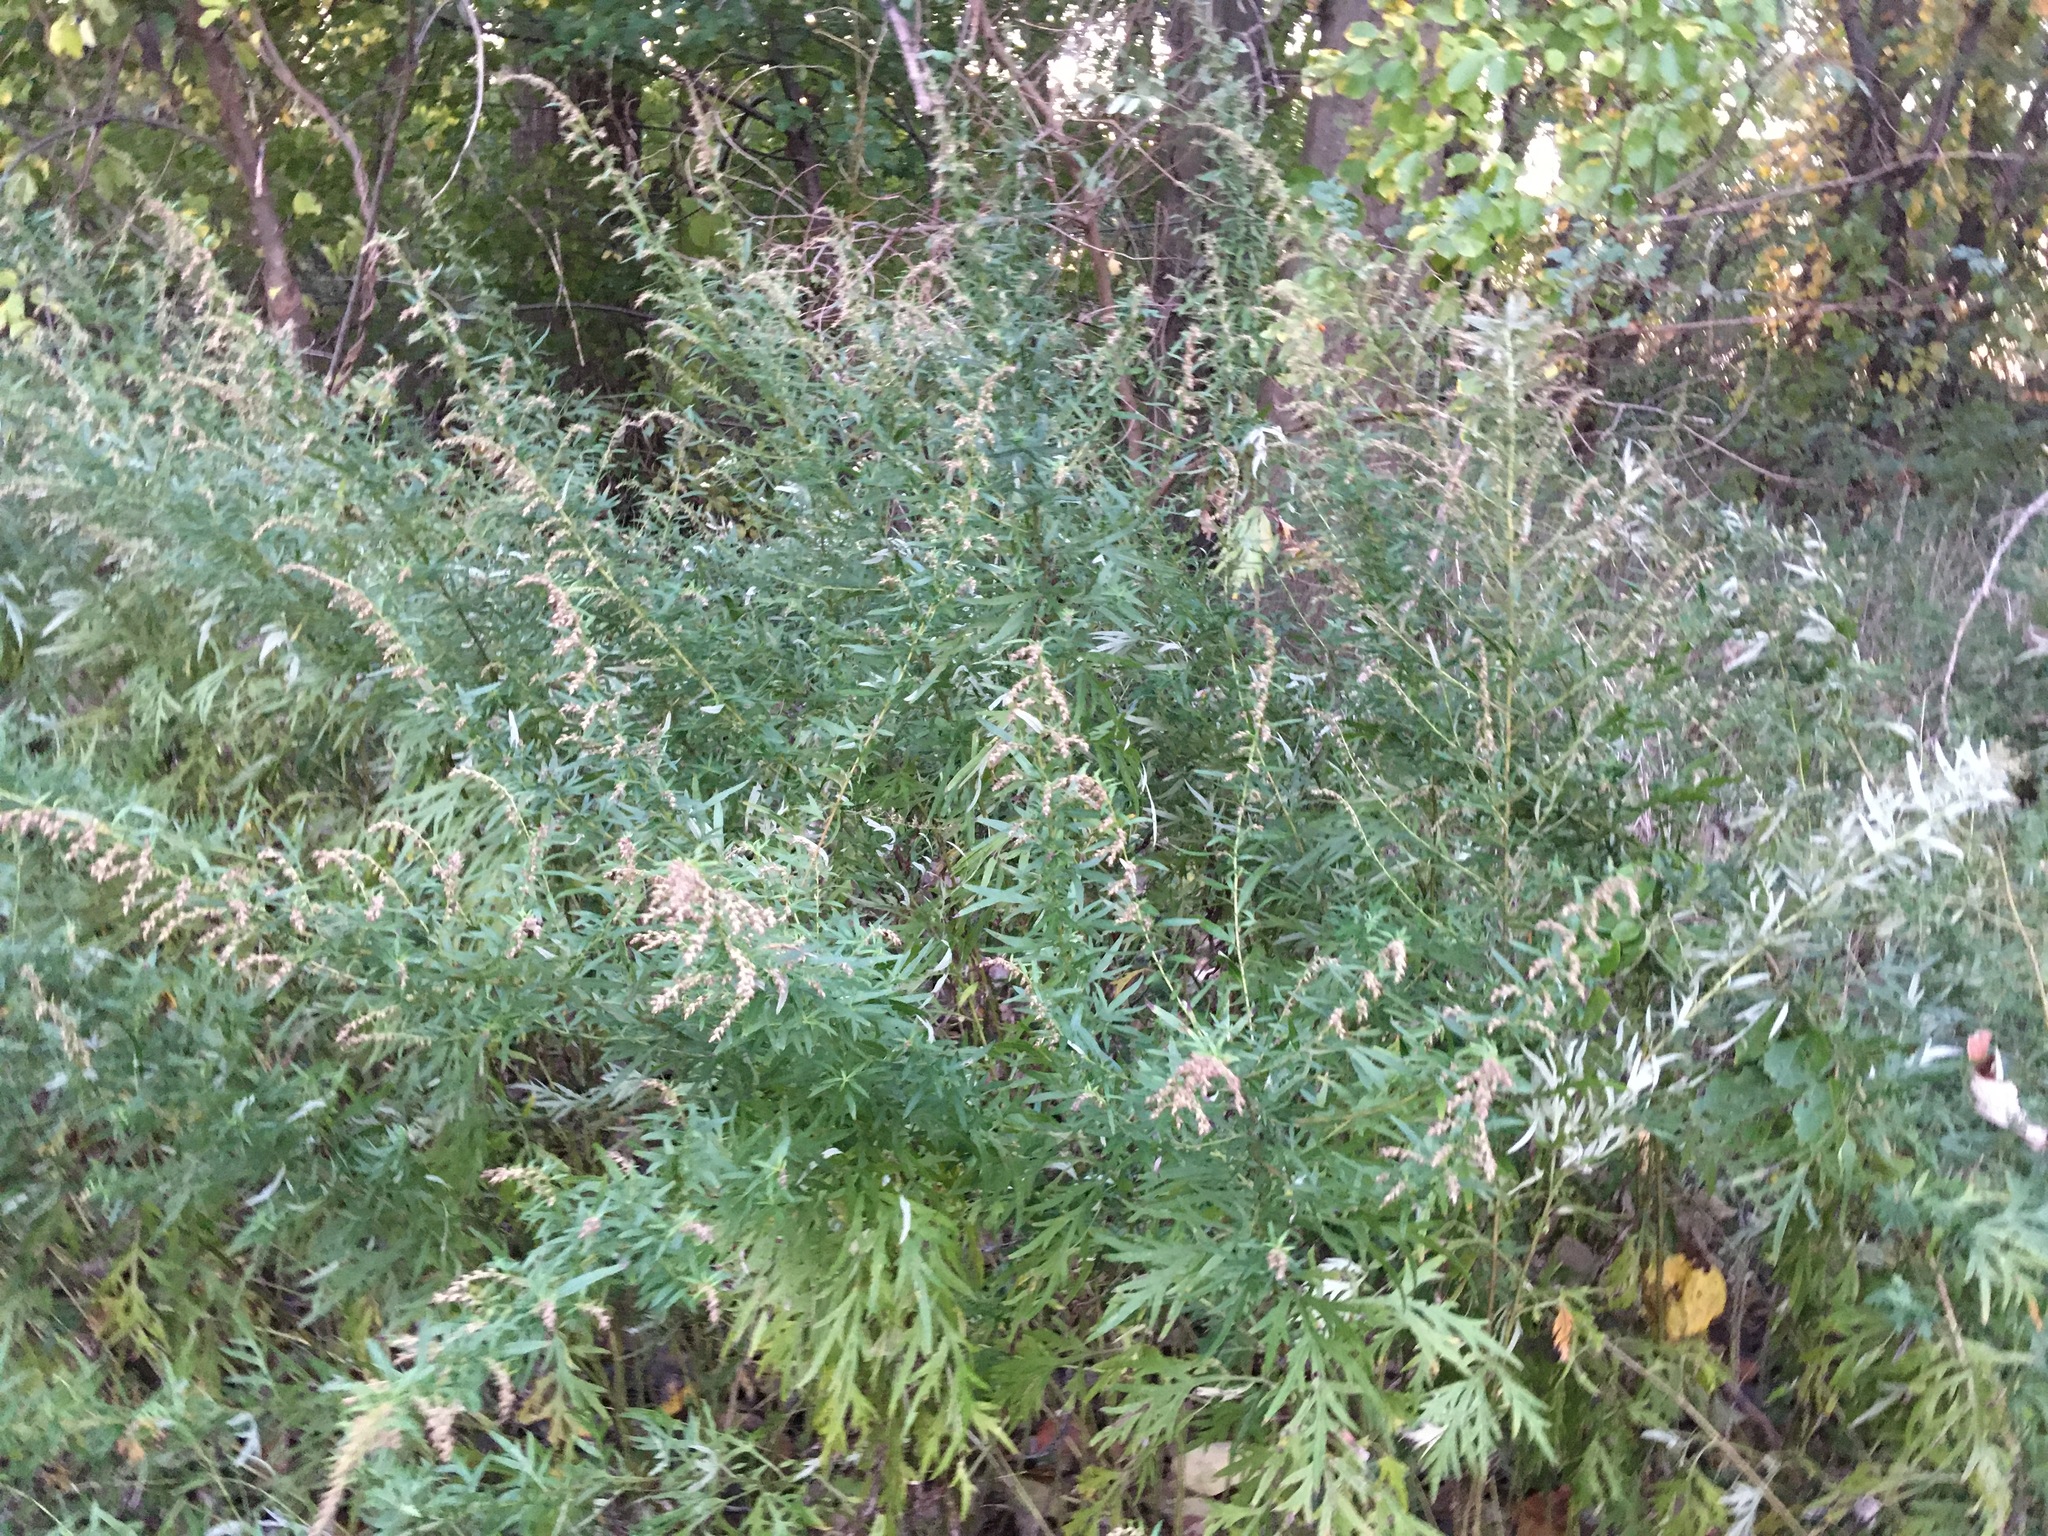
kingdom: Plantae
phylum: Tracheophyta
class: Magnoliopsida
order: Asterales
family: Asteraceae
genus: Artemisia
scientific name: Artemisia vulgaris
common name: Mugwort
